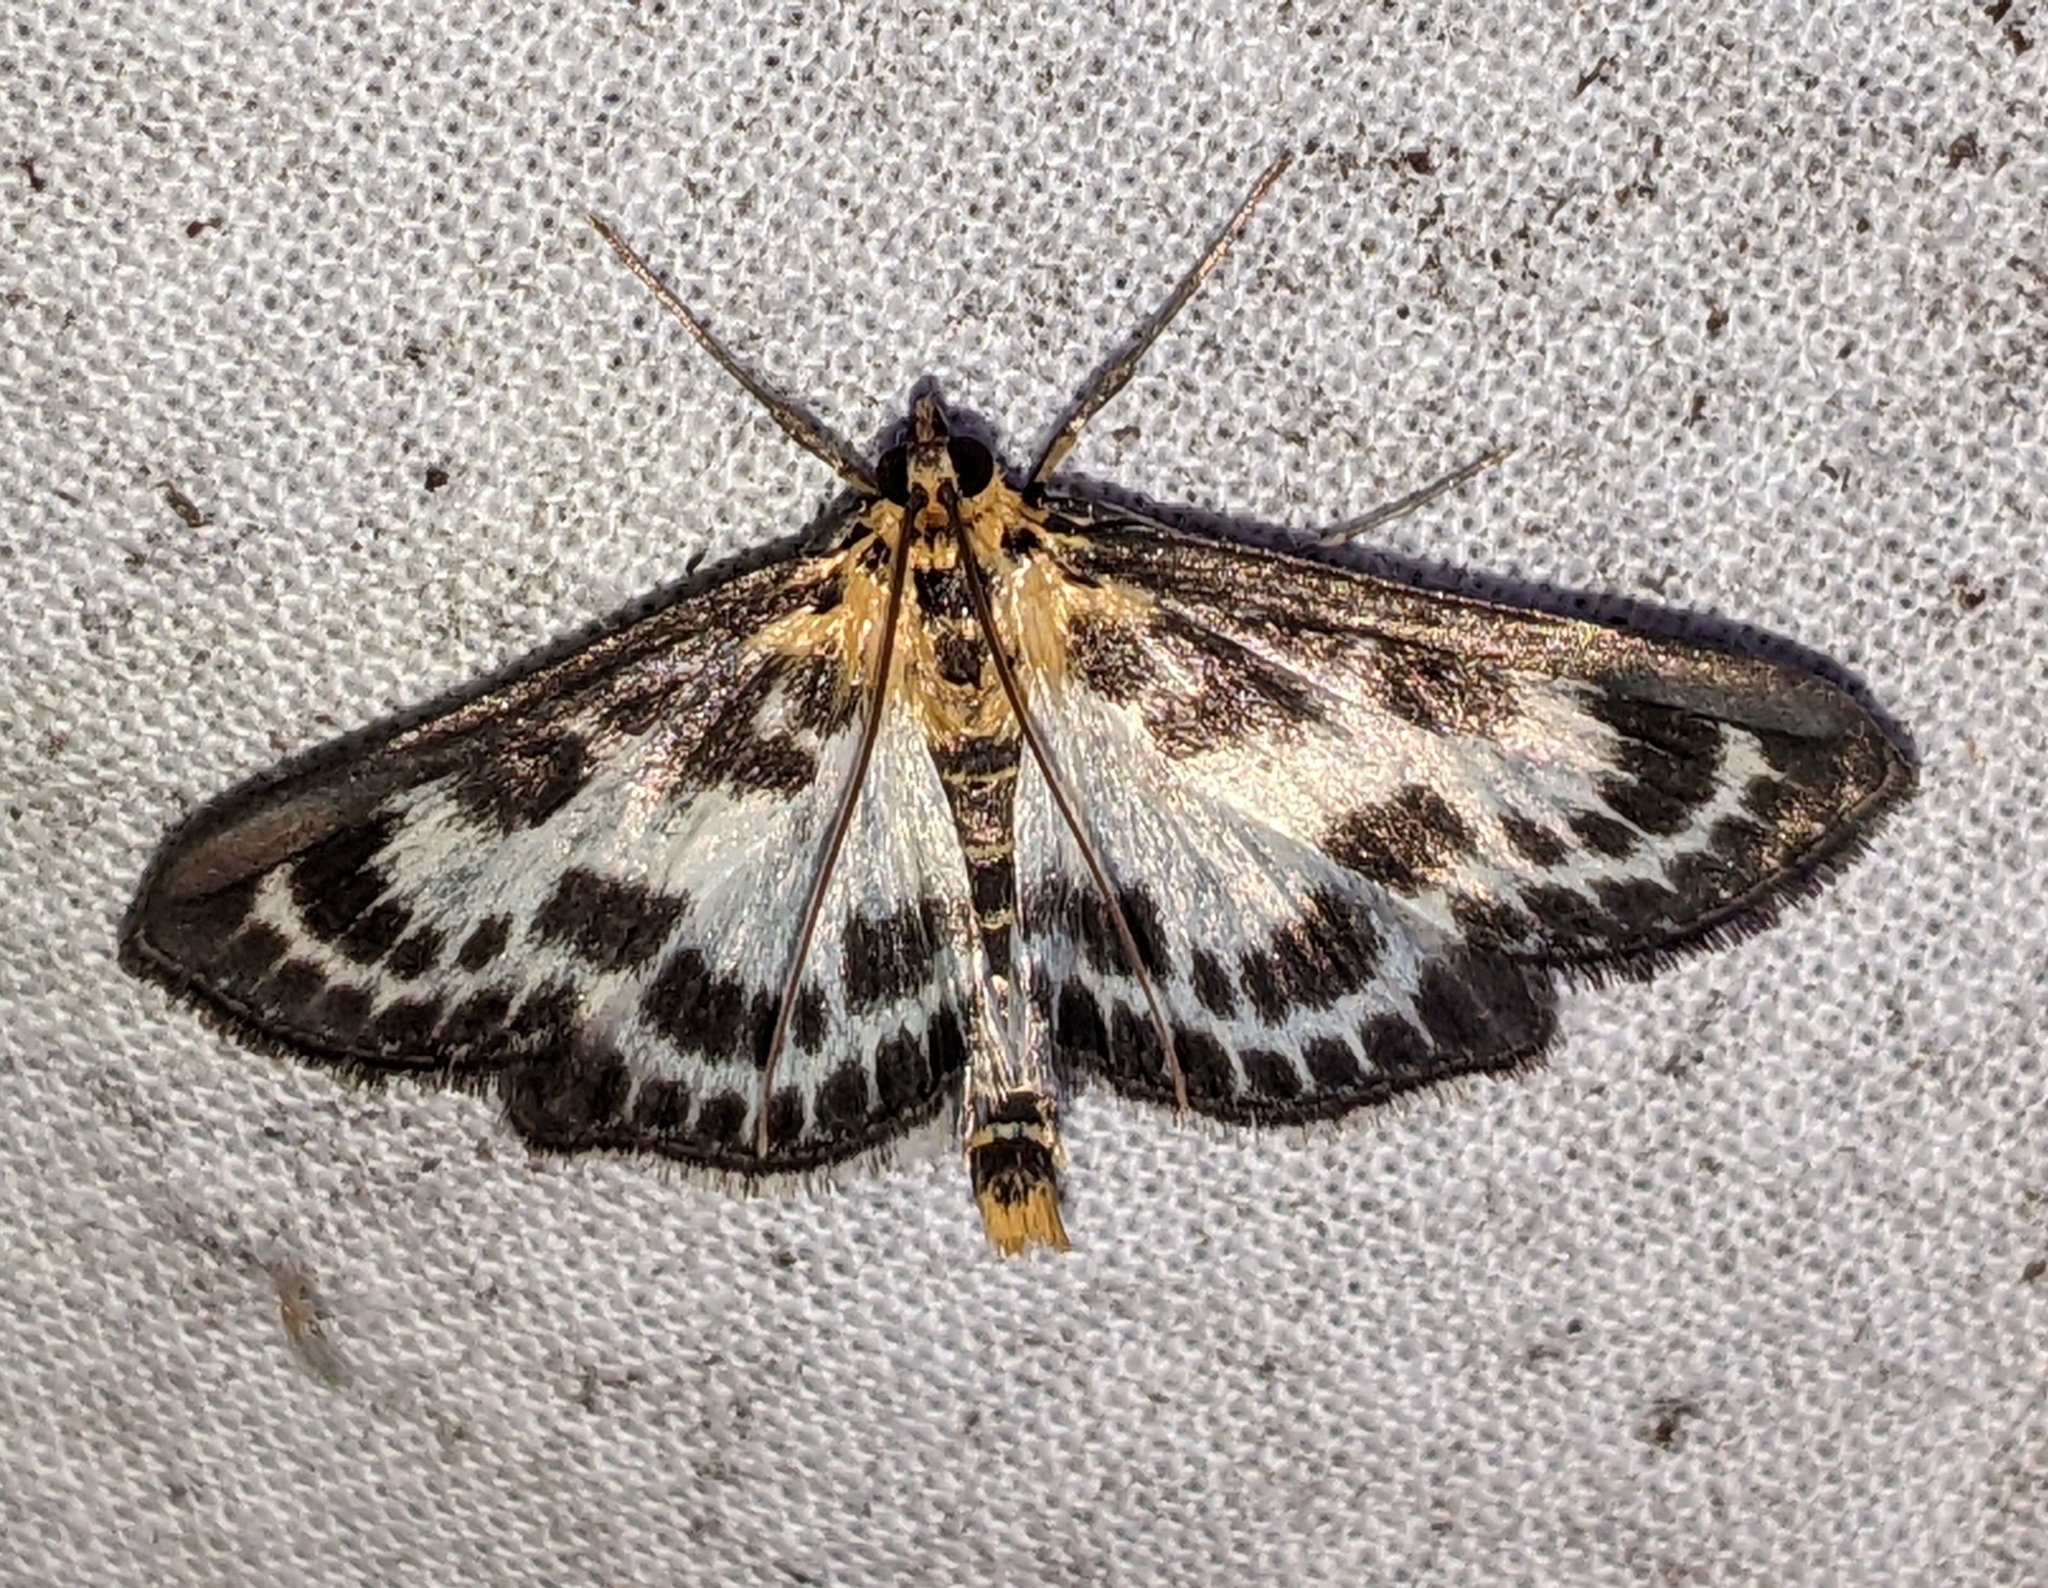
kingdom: Animalia
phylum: Arthropoda
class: Insecta
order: Lepidoptera
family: Crambidae
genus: Anania
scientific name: Anania hortulata
